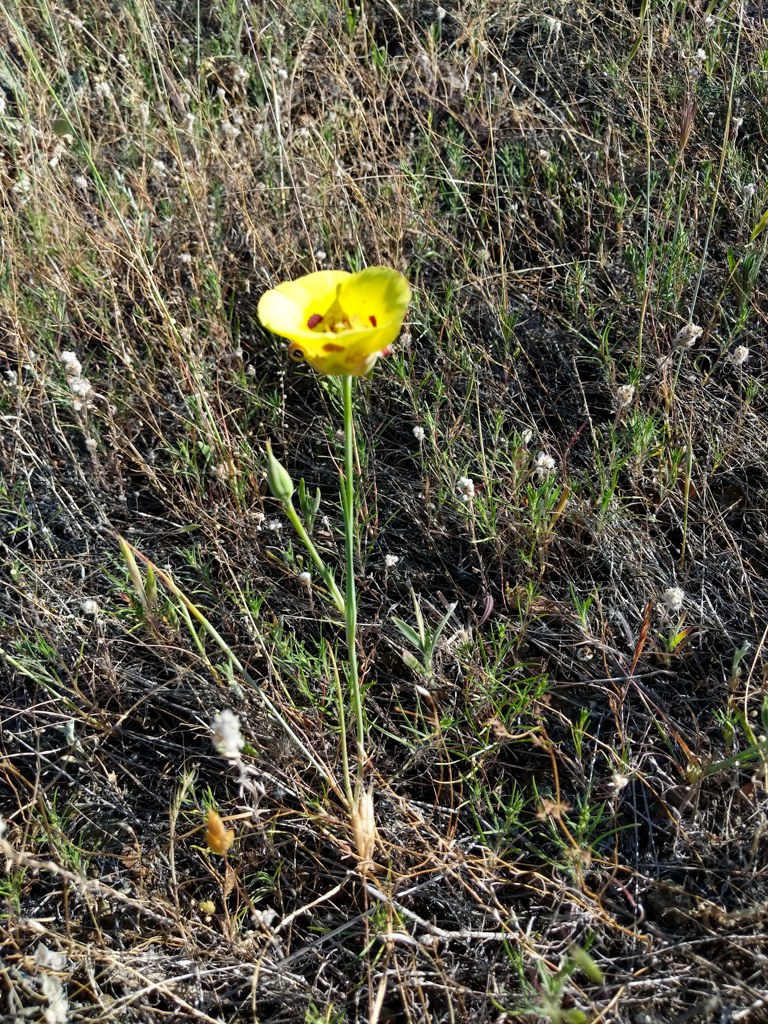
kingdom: Plantae
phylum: Tracheophyta
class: Liliopsida
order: Liliales
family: Liliaceae
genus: Calochortus
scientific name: Calochortus luteus
